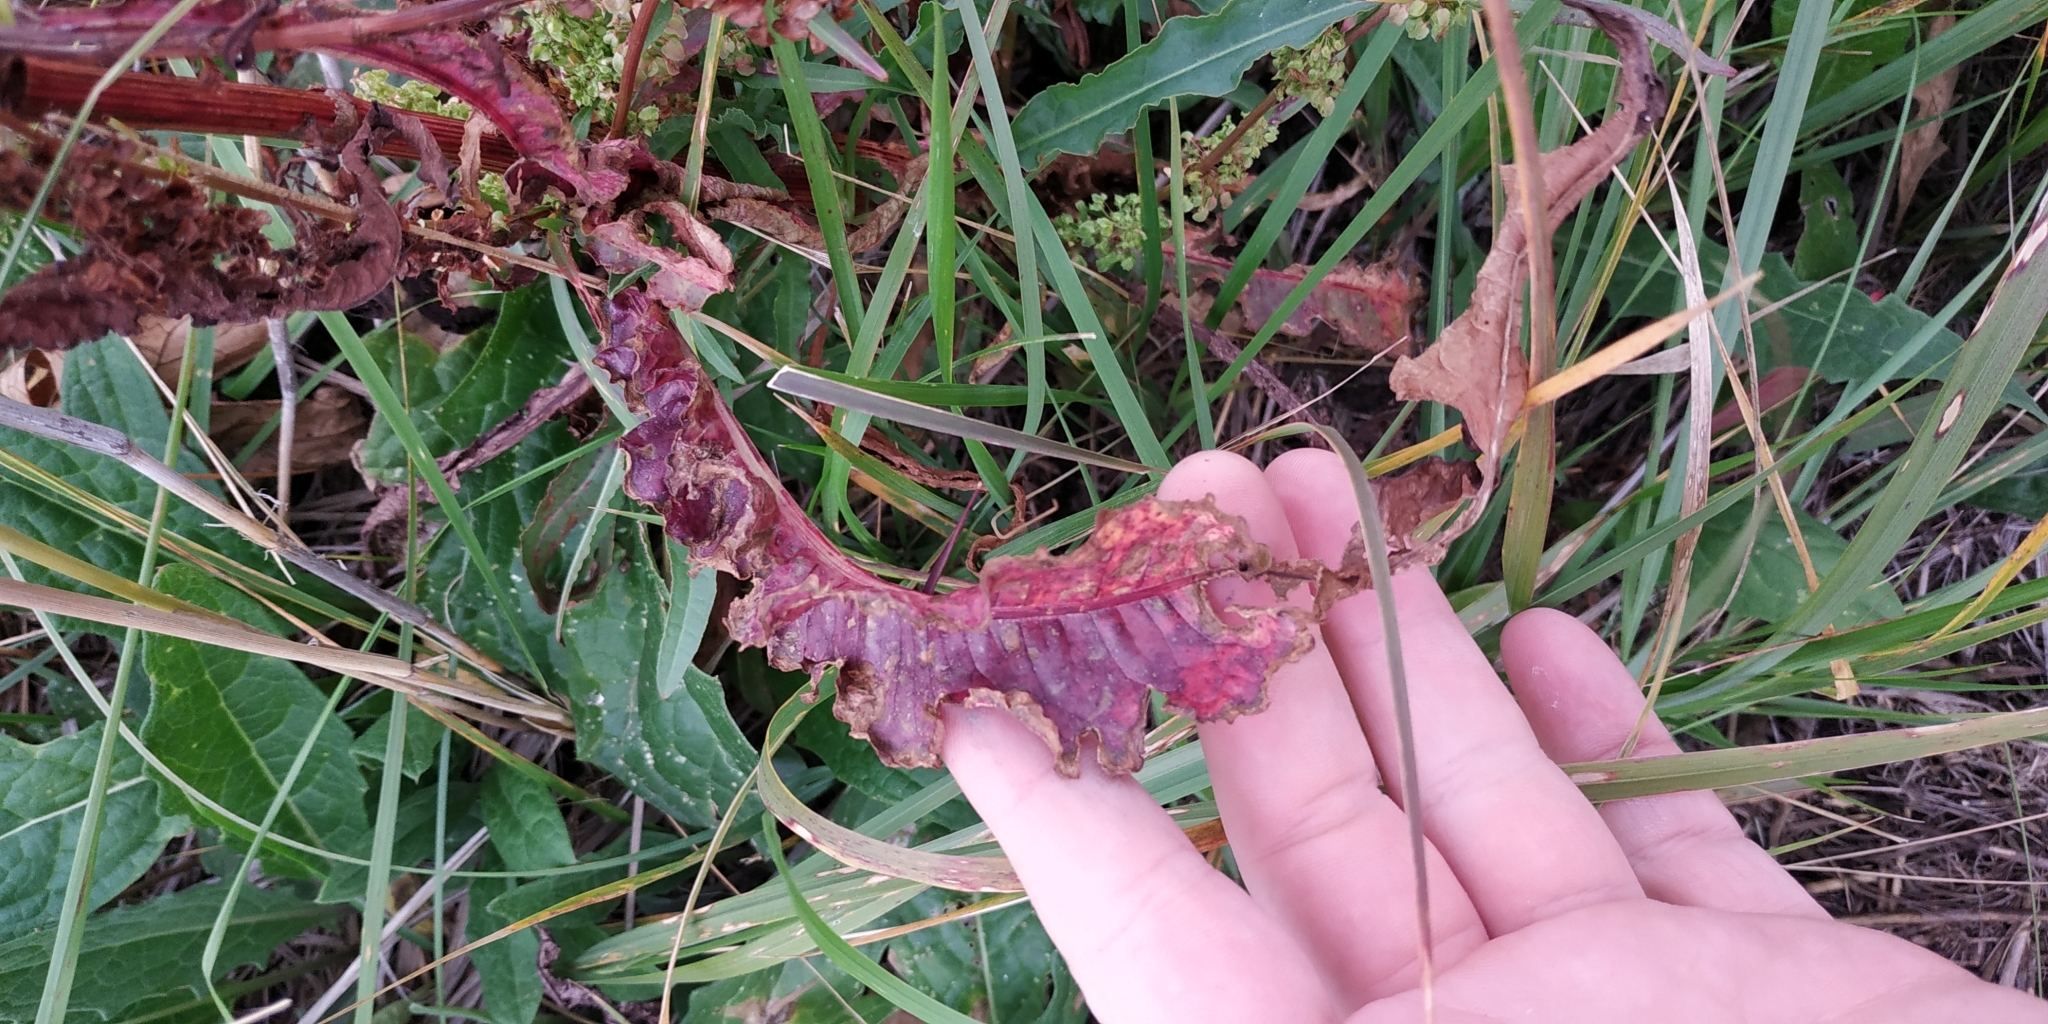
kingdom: Plantae
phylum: Tracheophyta
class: Magnoliopsida
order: Caryophyllales
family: Polygonaceae
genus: Rumex
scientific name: Rumex pseudonatronatus
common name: Field dock
